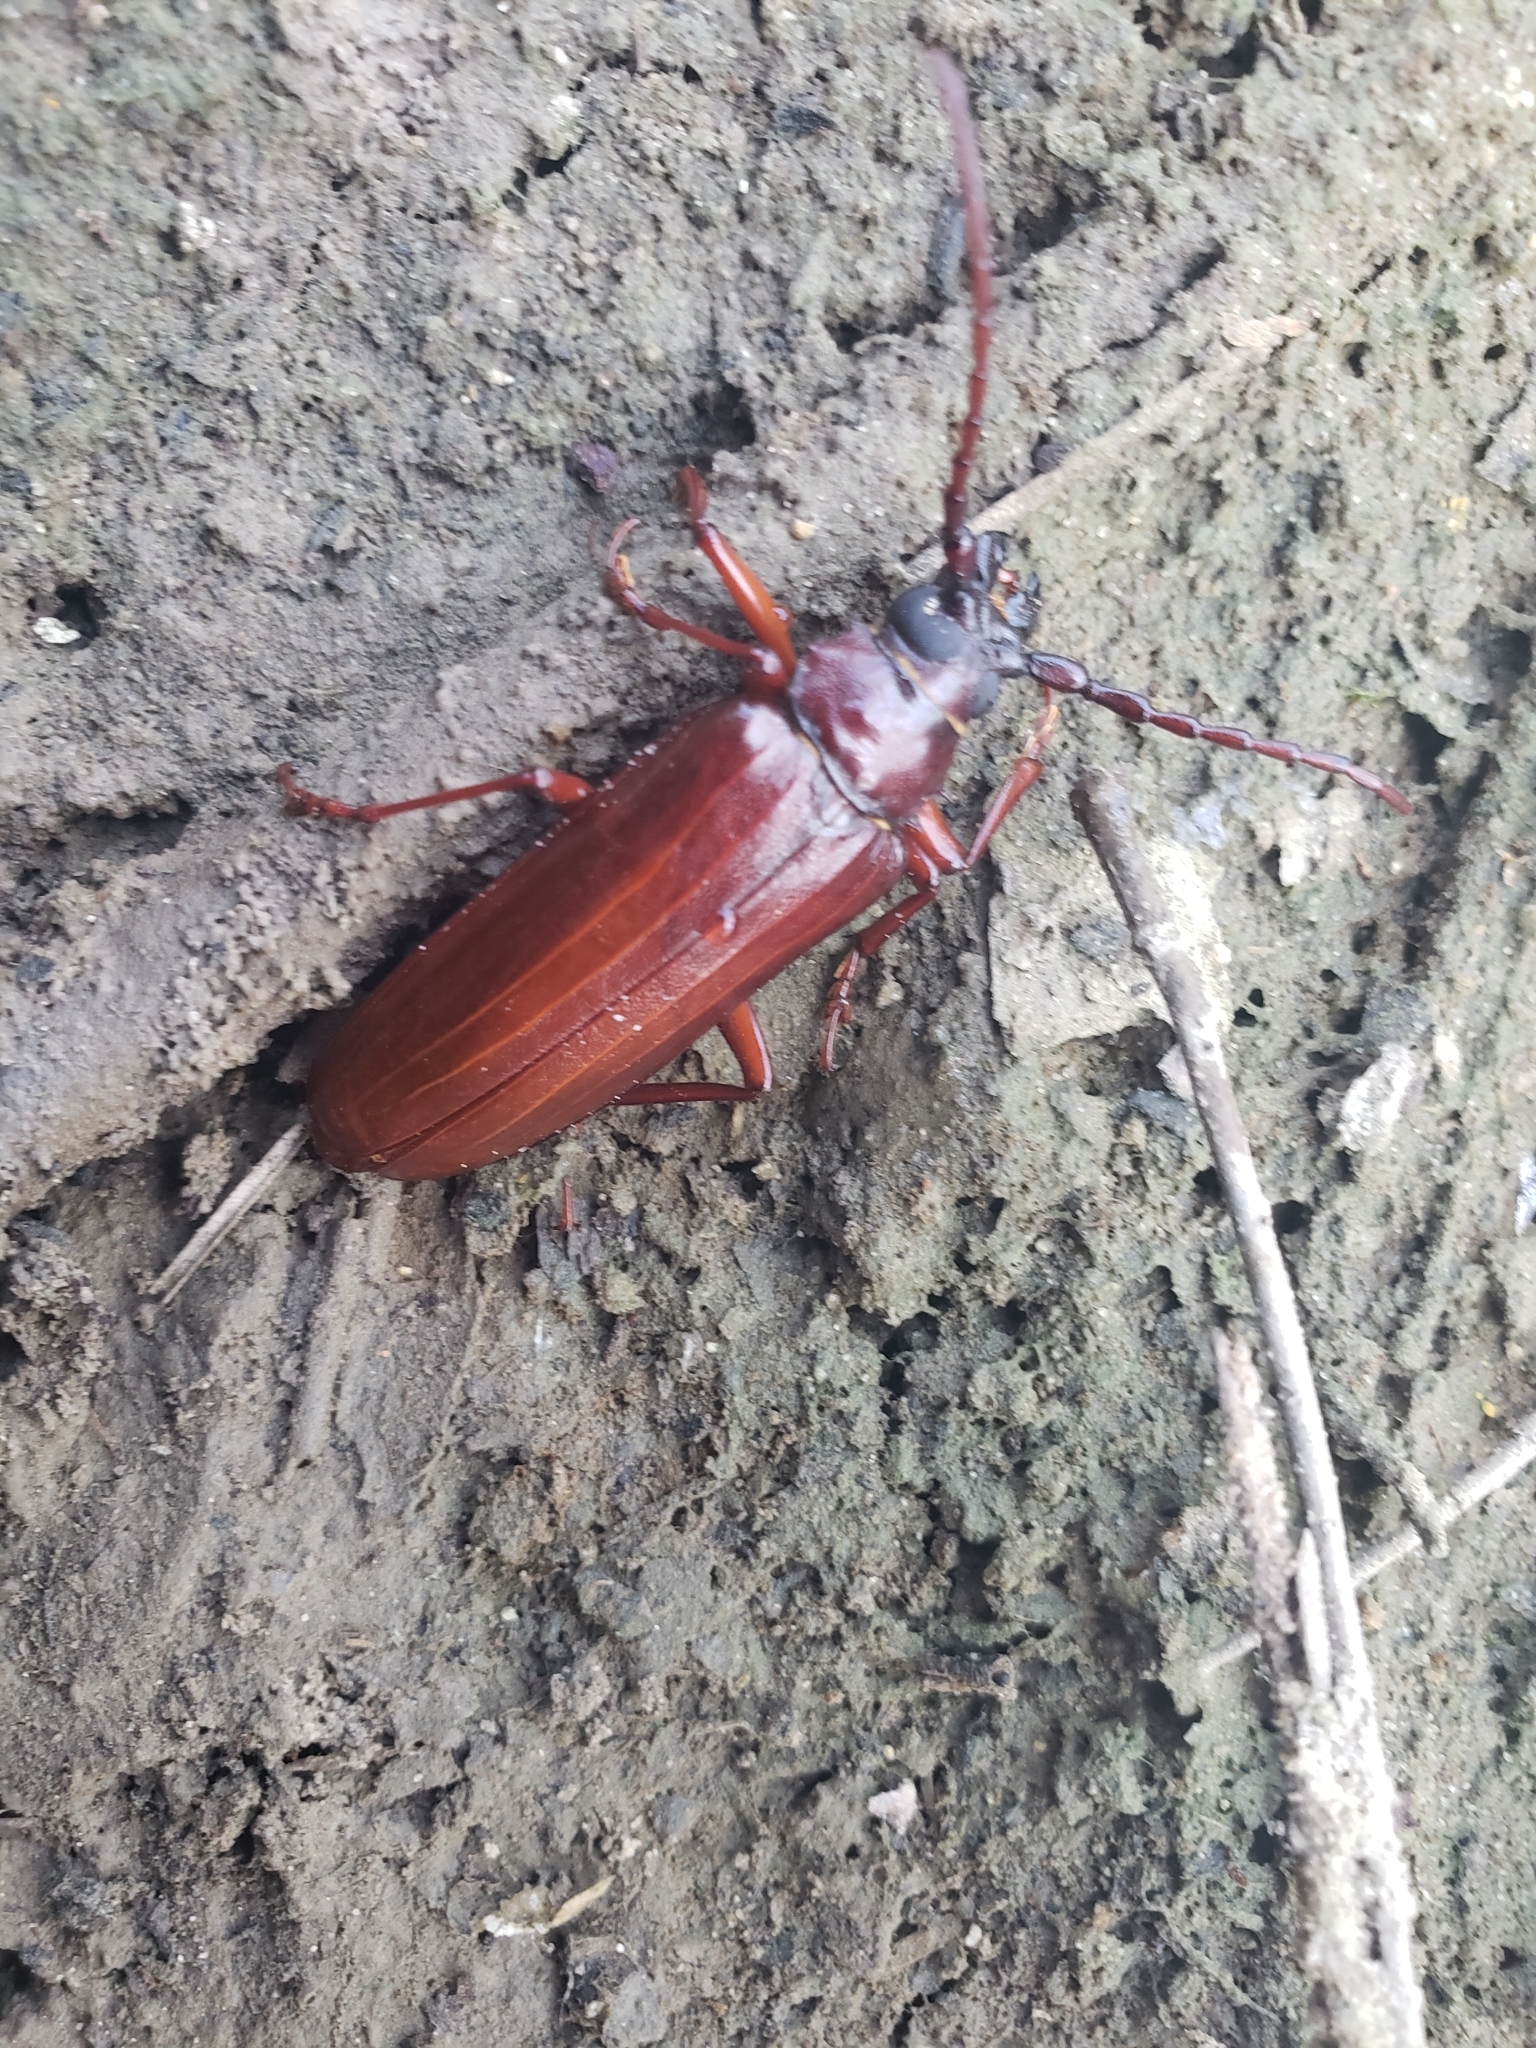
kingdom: Animalia
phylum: Arthropoda
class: Insecta
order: Coleoptera
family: Cerambycidae
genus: Orthosoma
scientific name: Orthosoma brunneum
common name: Brown prionid beetle
